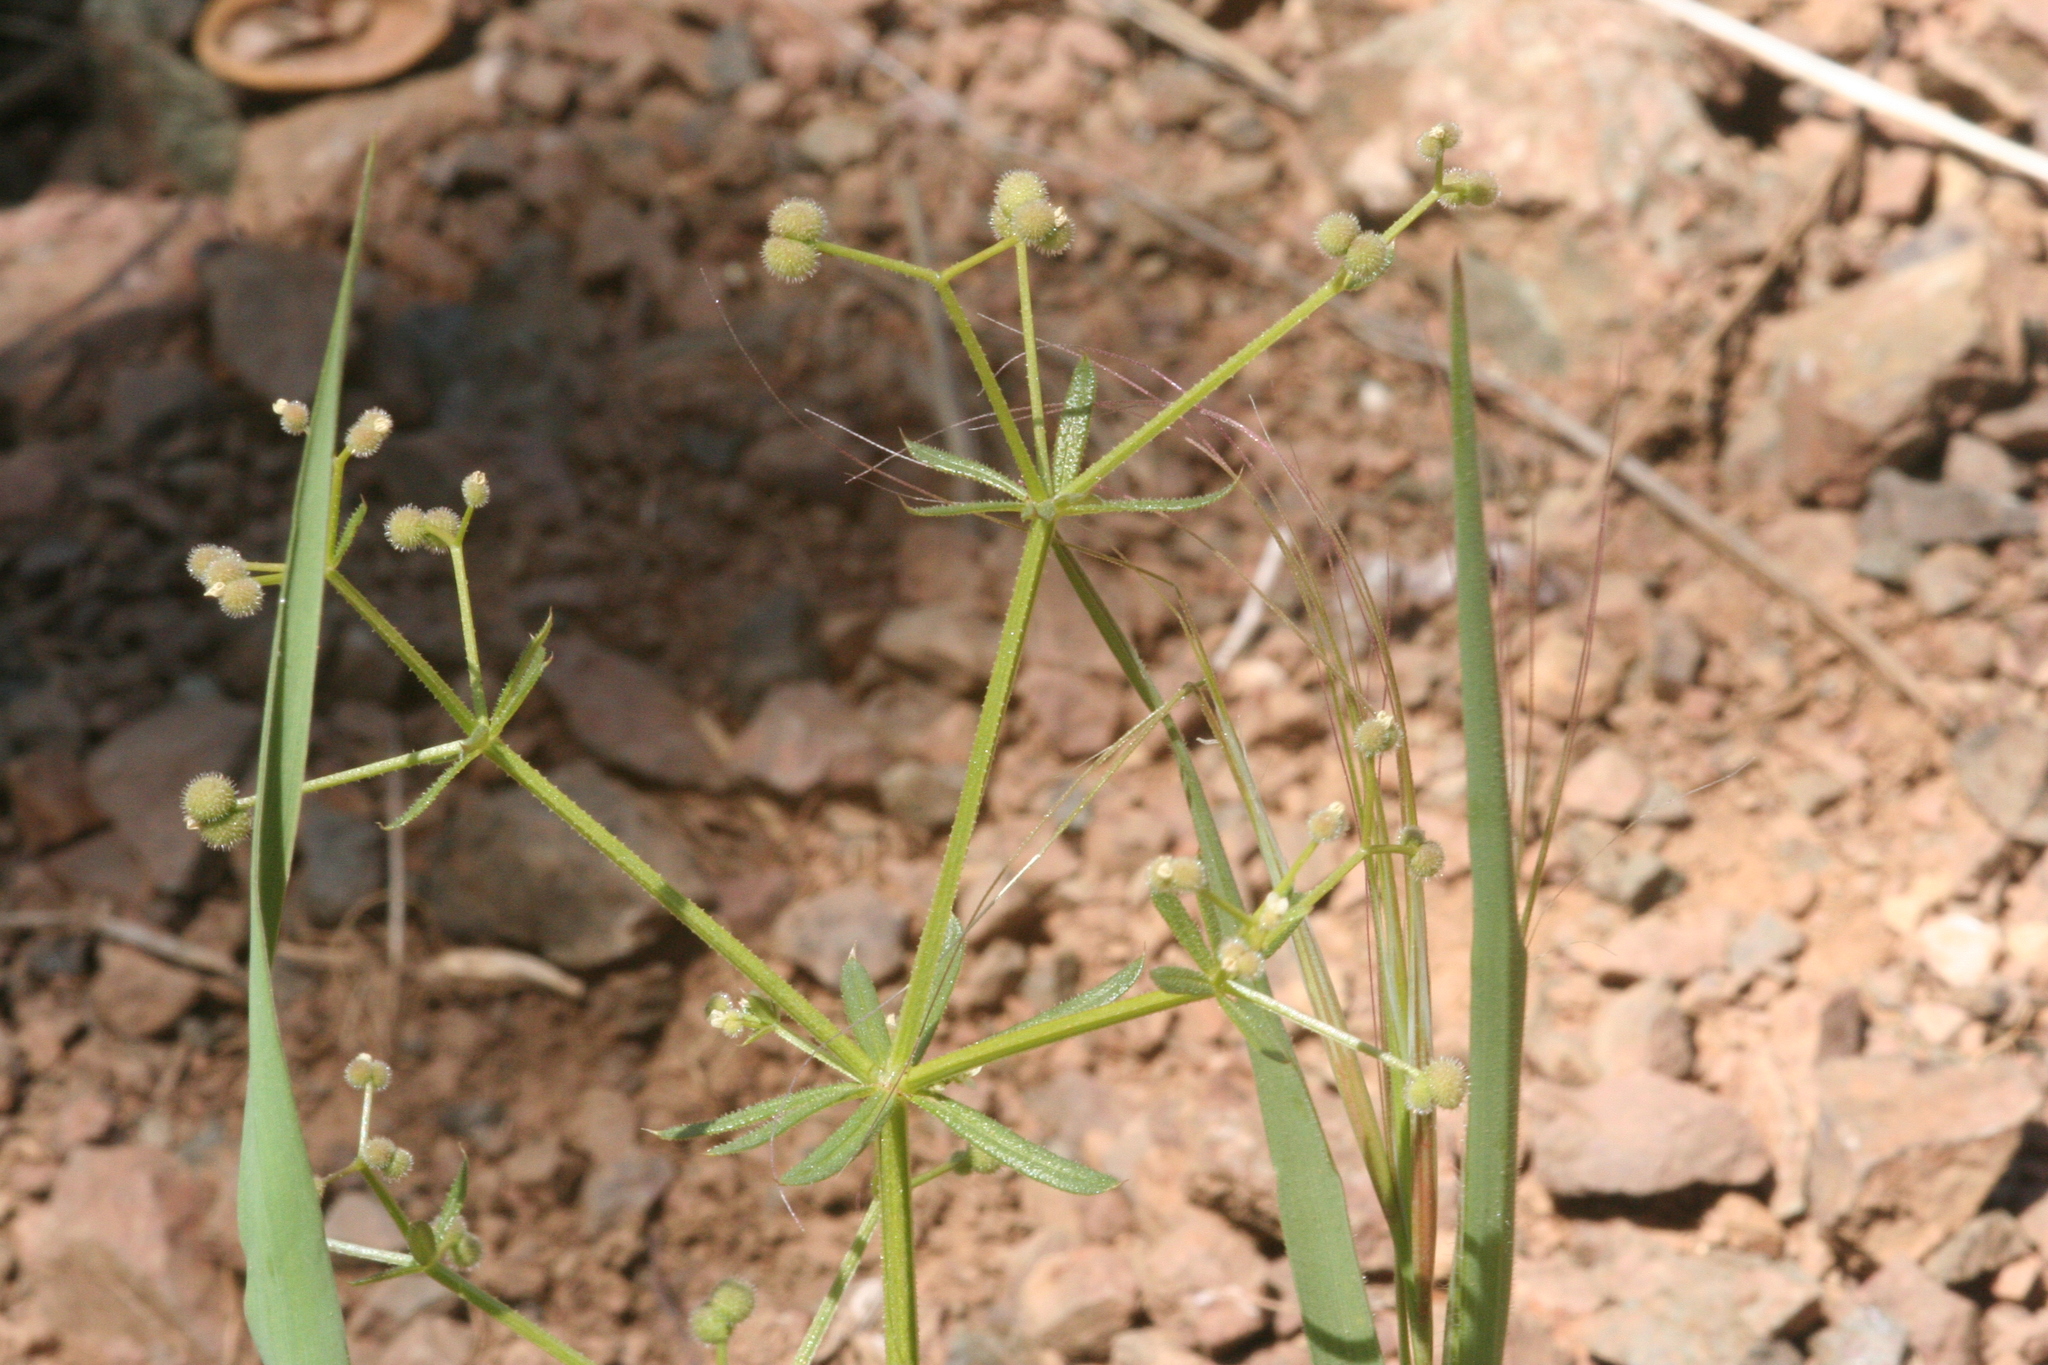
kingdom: Plantae
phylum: Tracheophyta
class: Magnoliopsida
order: Gentianales
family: Rubiaceae
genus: Galium
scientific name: Galium aparine
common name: Cleavers
